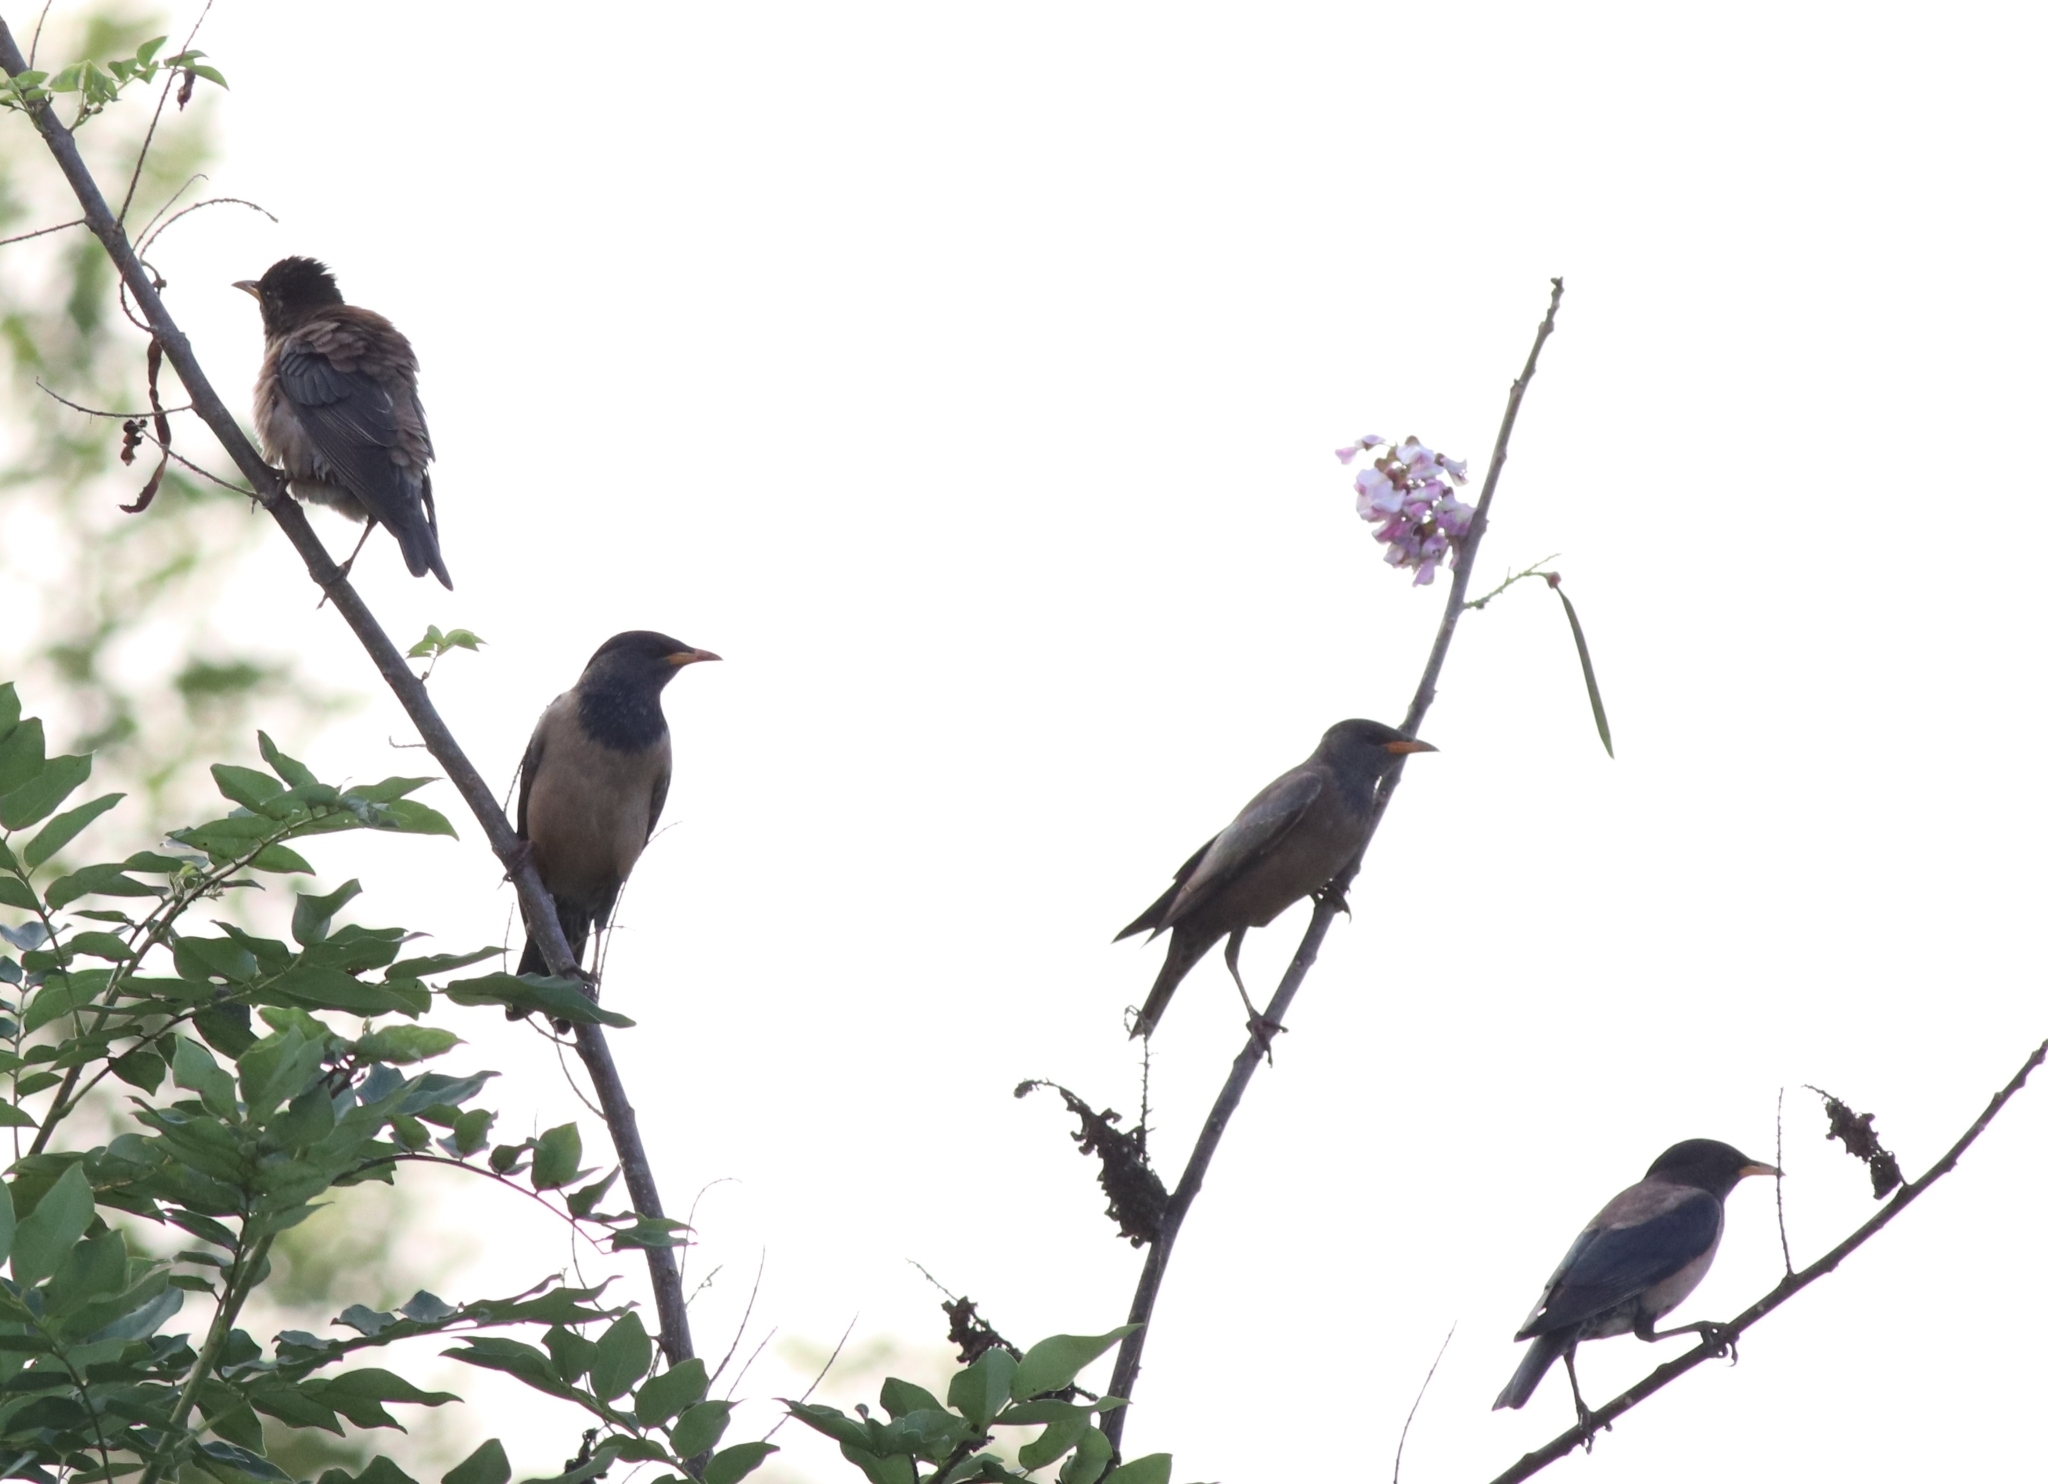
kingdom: Animalia
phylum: Chordata
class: Aves
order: Passeriformes
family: Sturnidae
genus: Pastor
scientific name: Pastor roseus
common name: Rosy starling
